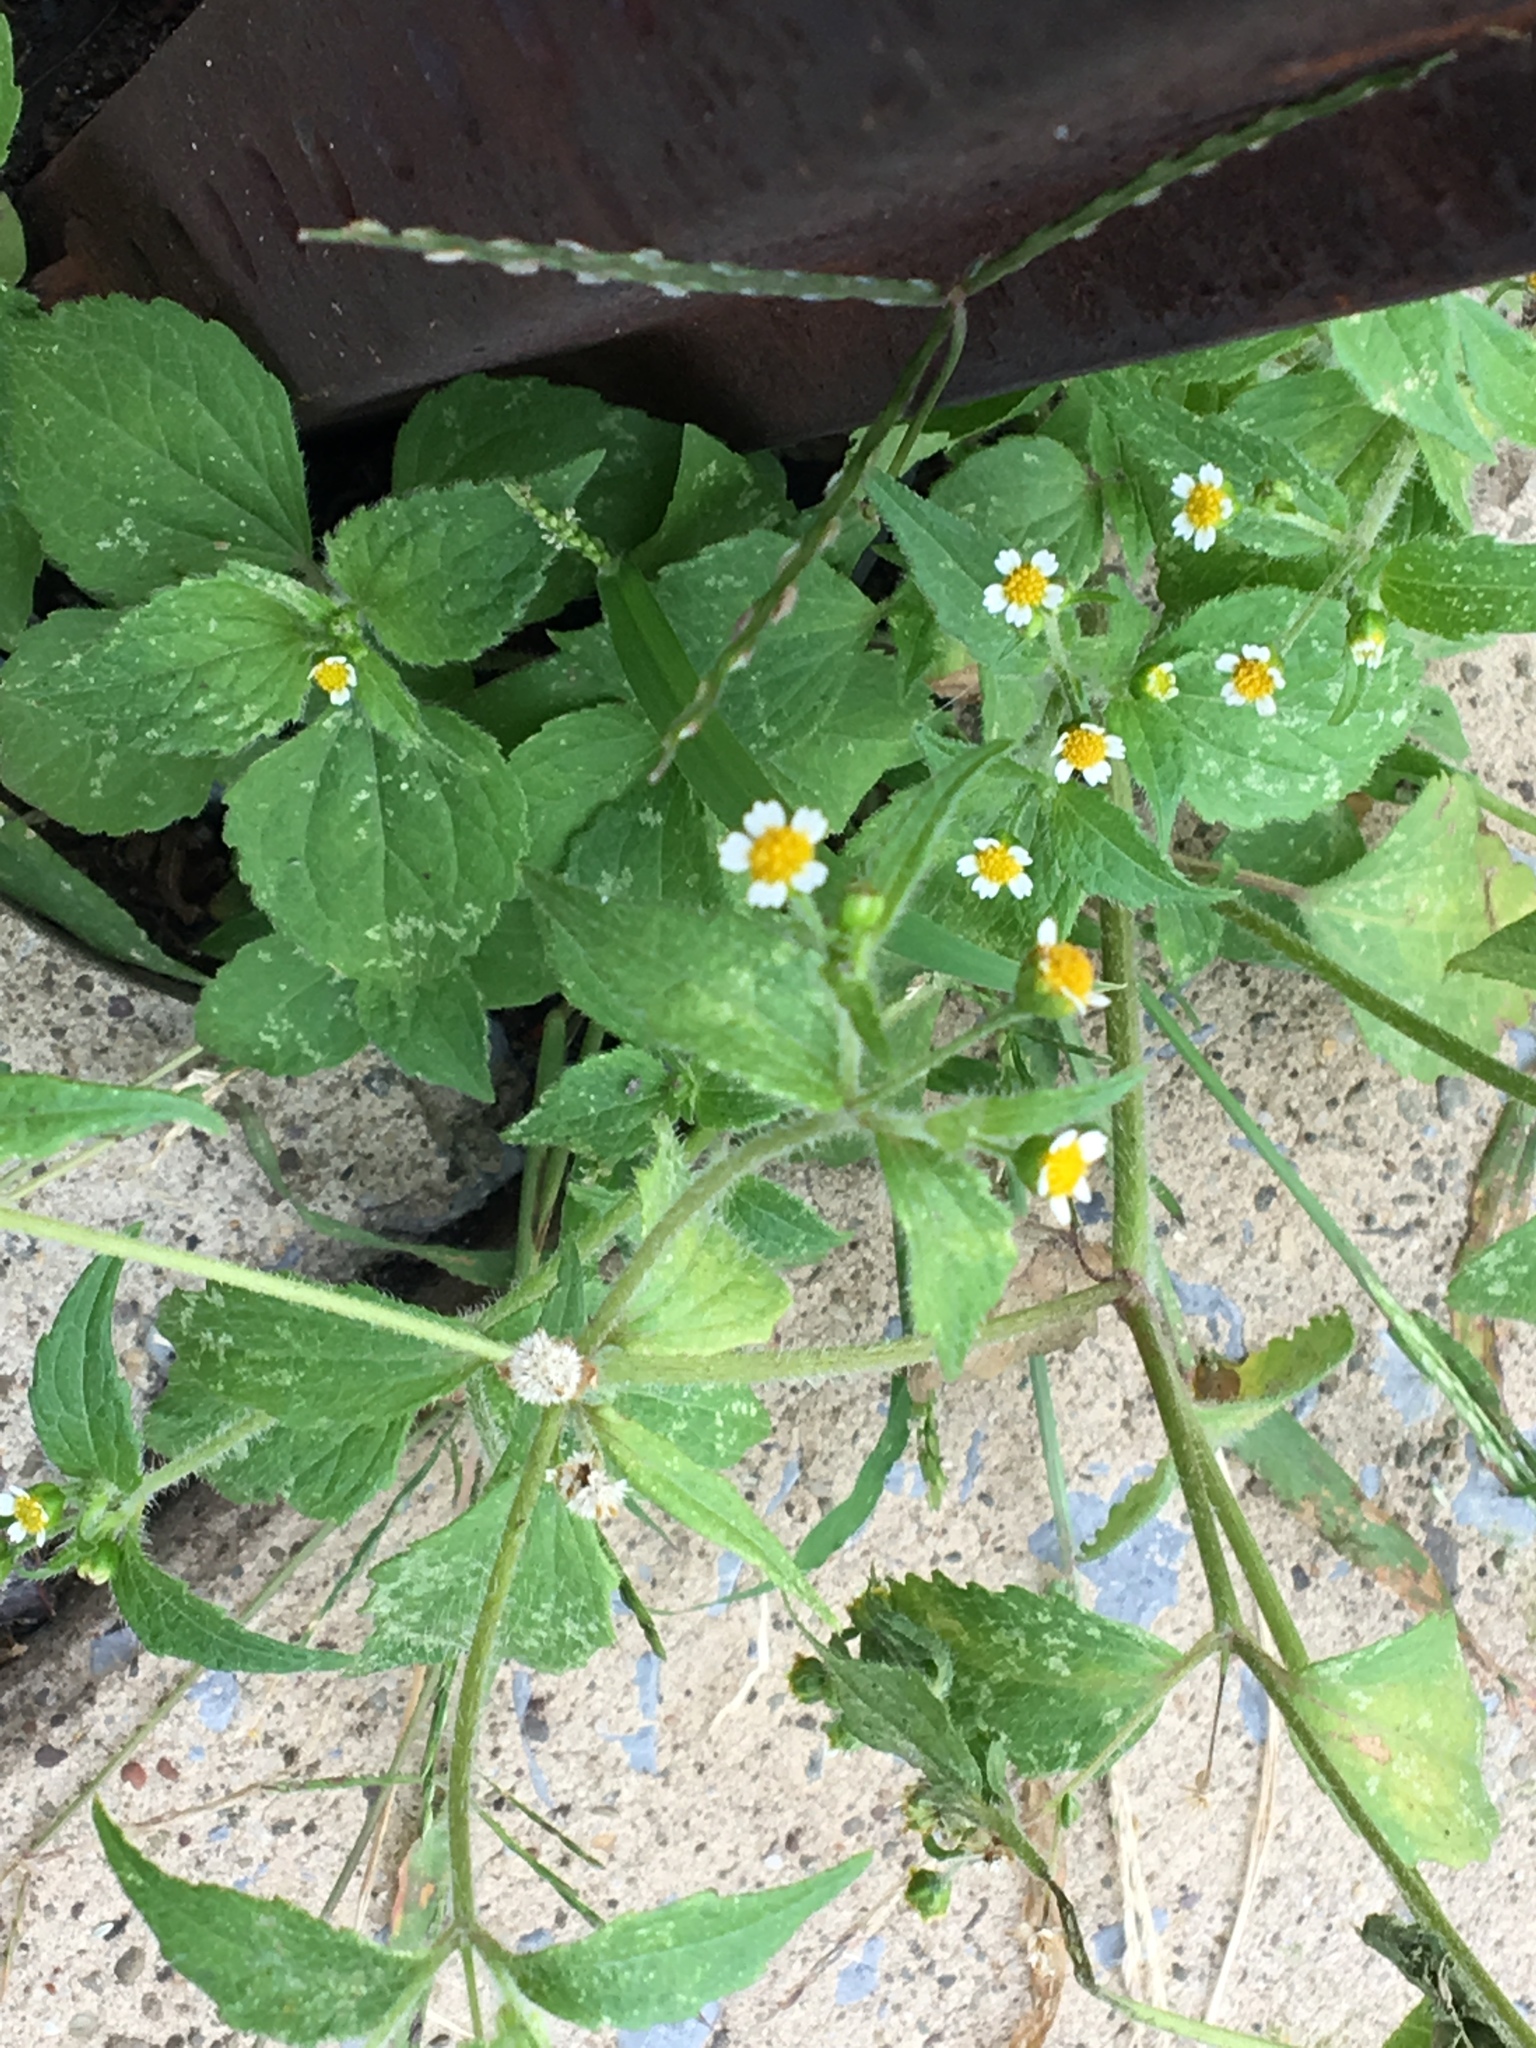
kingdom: Plantae
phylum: Tracheophyta
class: Magnoliopsida
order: Asterales
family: Asteraceae
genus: Galinsoga
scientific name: Galinsoga quadriradiata
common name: Shaggy soldier
